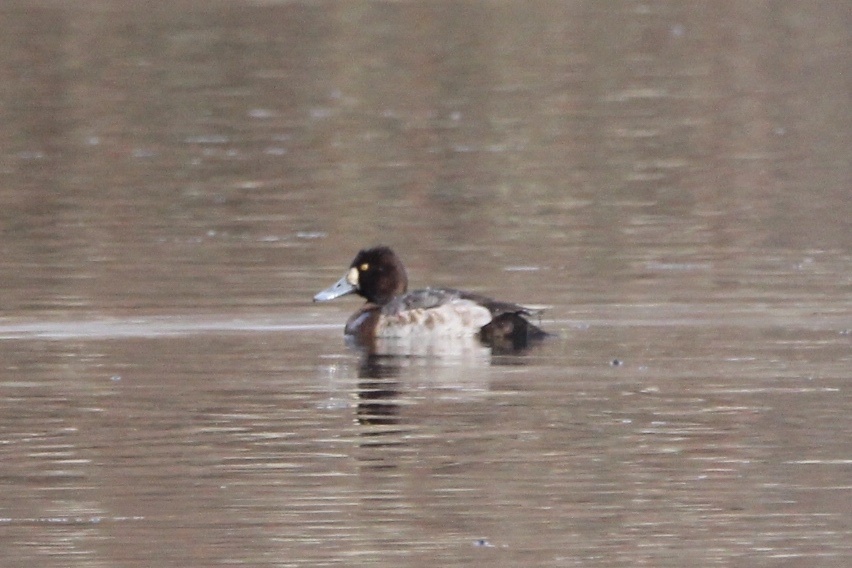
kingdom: Animalia
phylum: Chordata
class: Aves
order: Anseriformes
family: Anatidae
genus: Aythya
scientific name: Aythya affinis
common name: Lesser scaup
